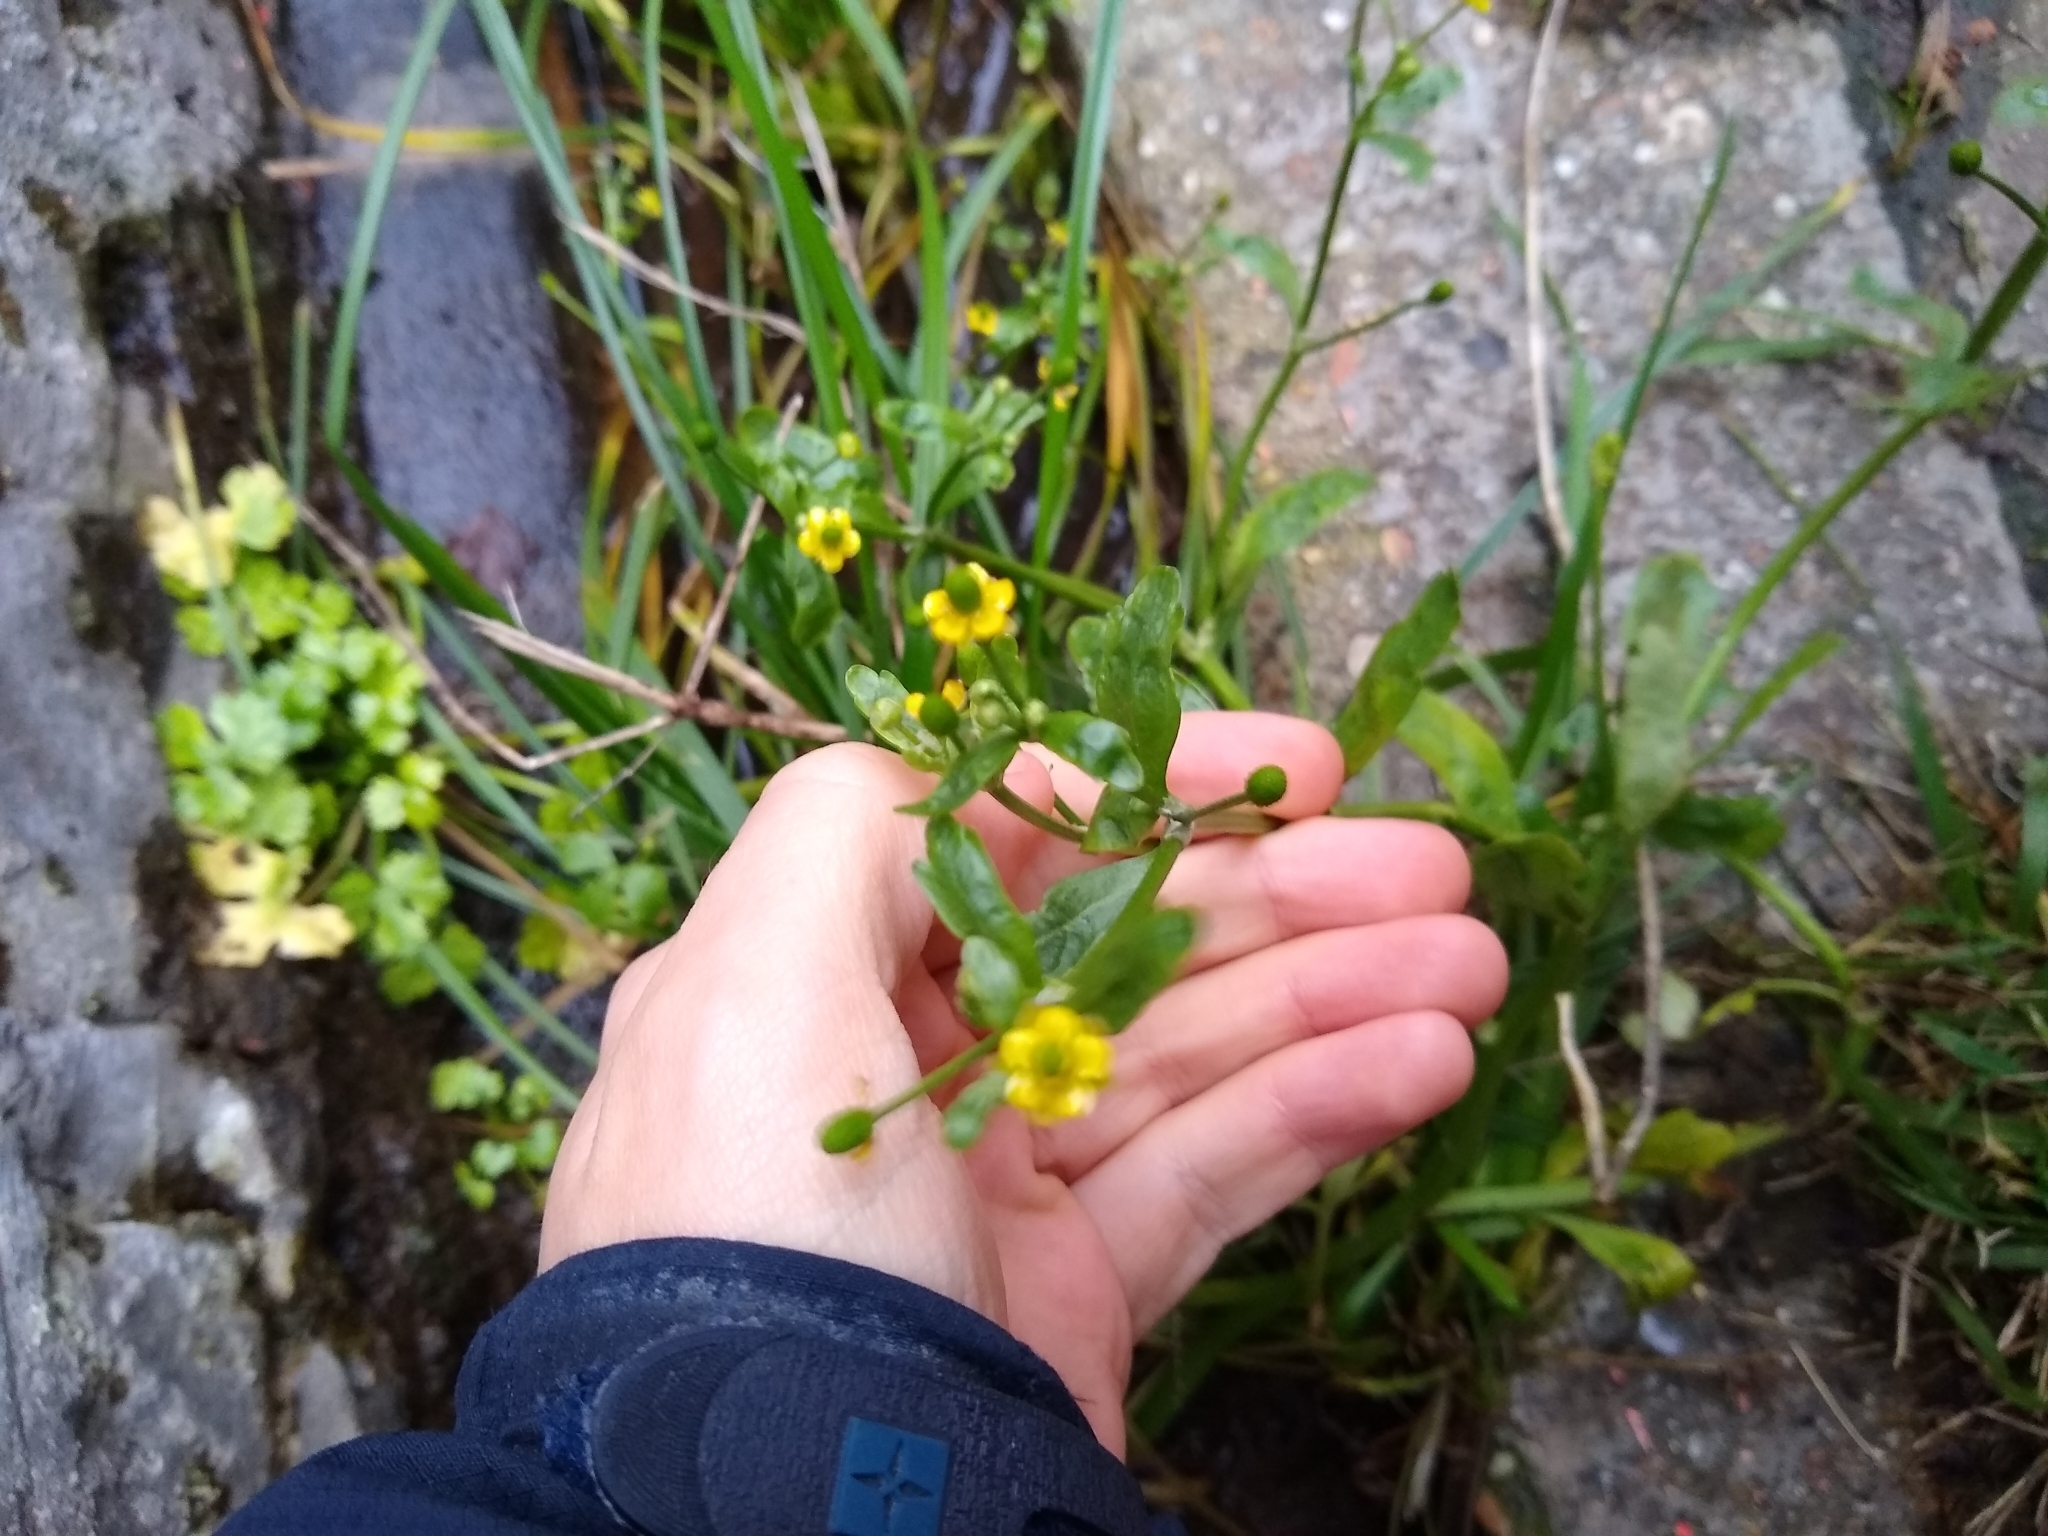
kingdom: Plantae
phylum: Tracheophyta
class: Magnoliopsida
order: Ranunculales
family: Ranunculaceae
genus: Ranunculus
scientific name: Ranunculus sceleratus
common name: Celery-leaved buttercup
